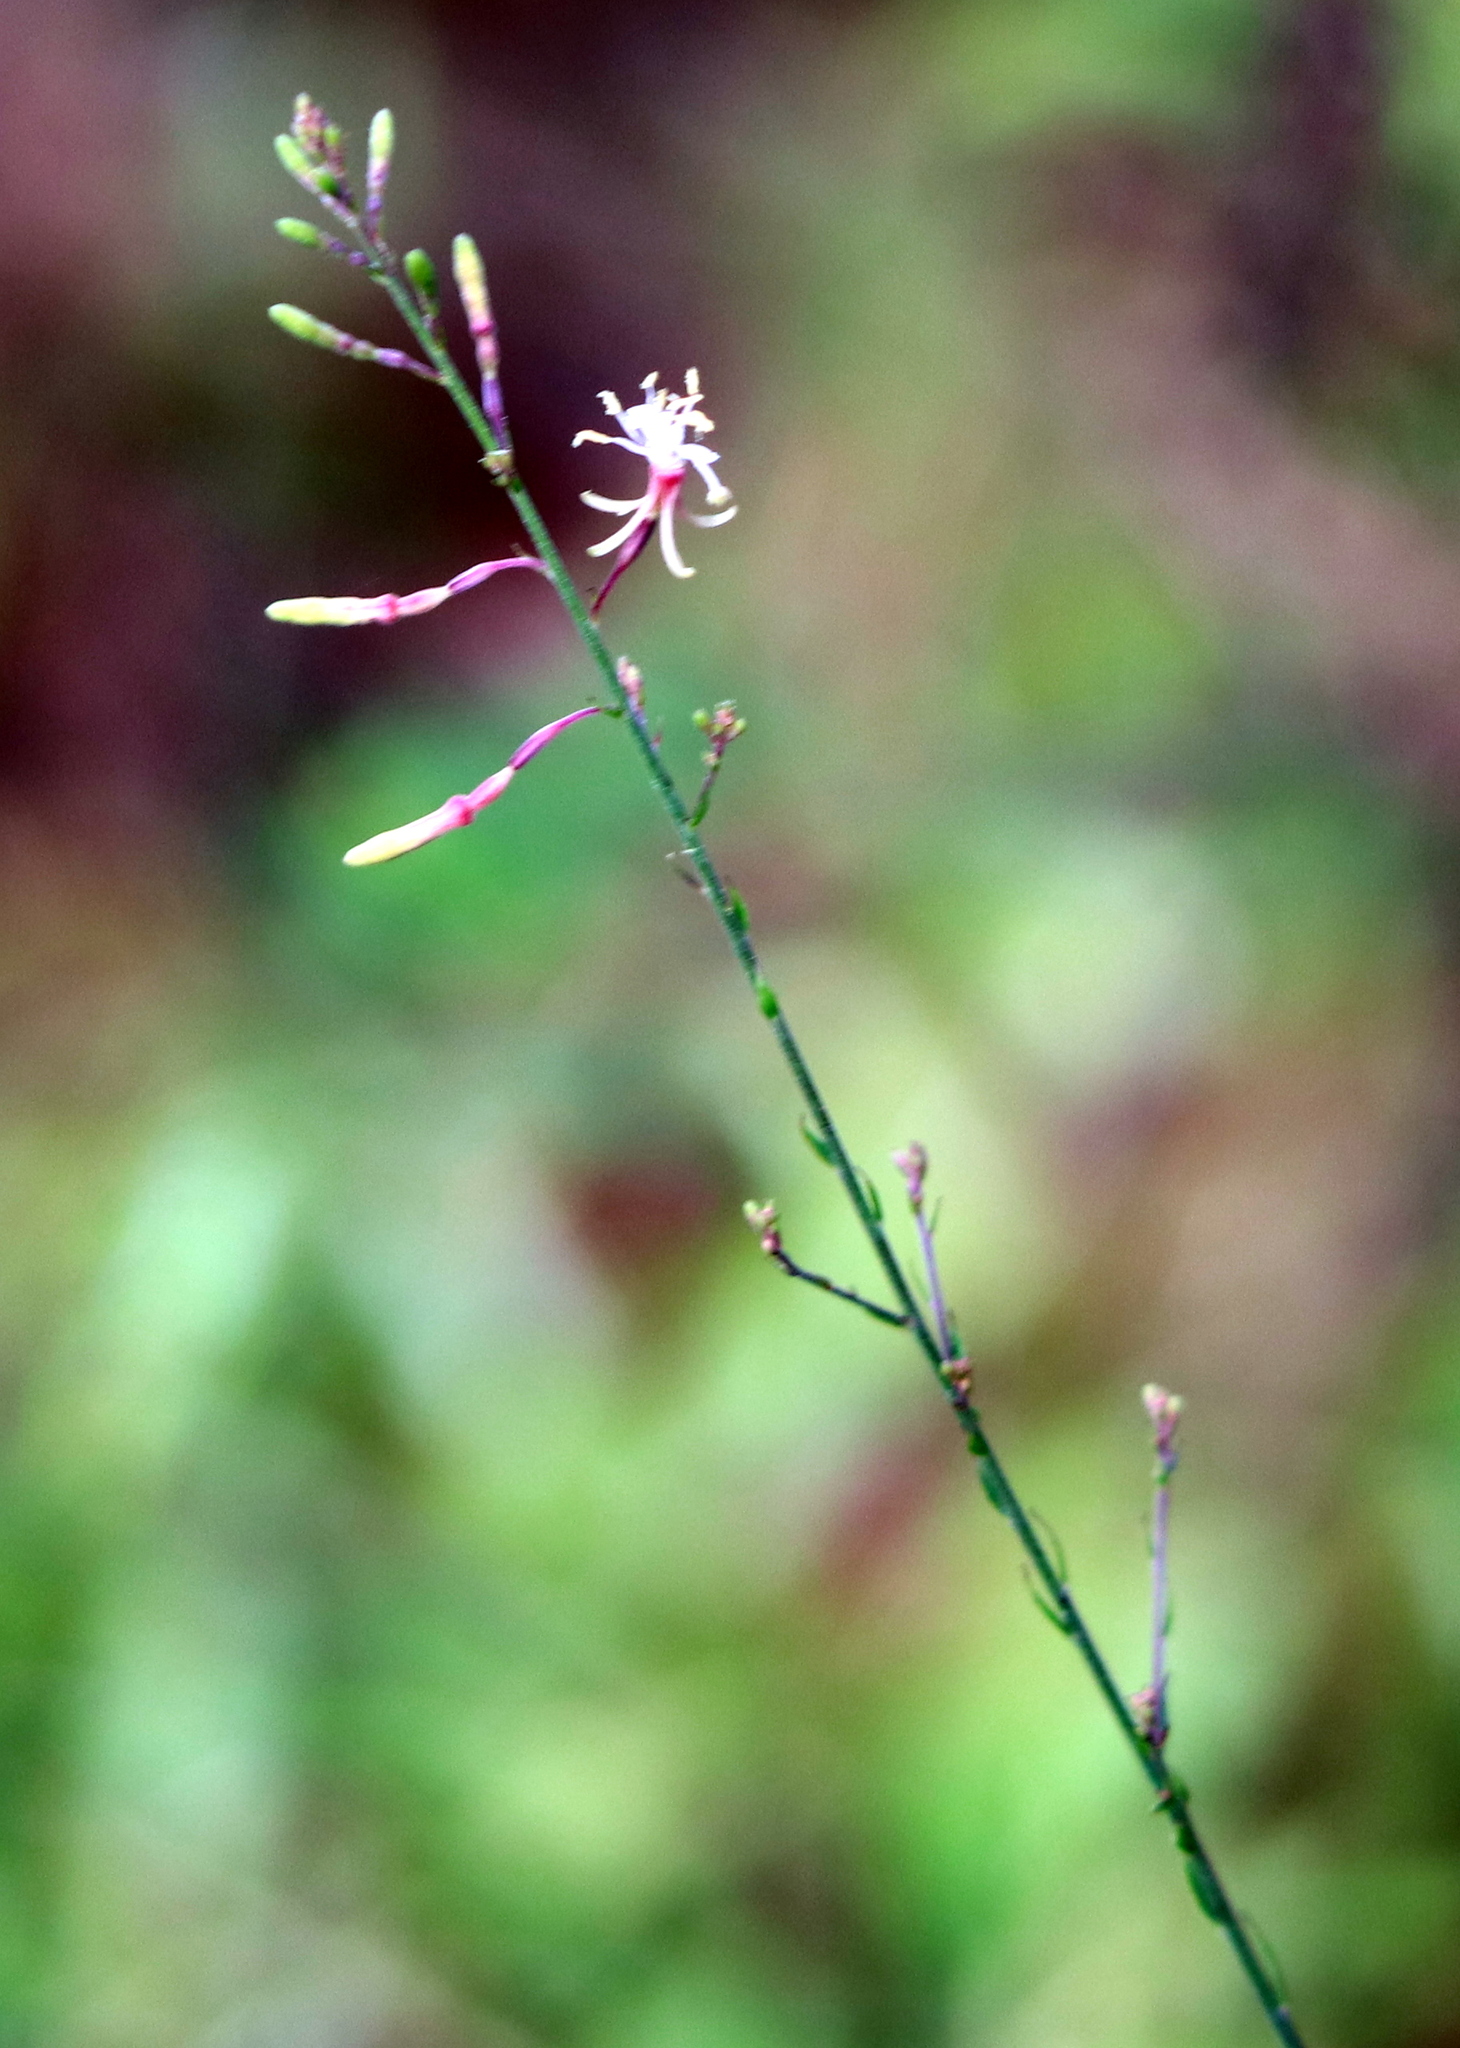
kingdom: Plantae
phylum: Tracheophyta
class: Magnoliopsida
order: Myrtales
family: Onagraceae
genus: Oenothera
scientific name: Oenothera filipes
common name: Slenderstalk beeblossom
